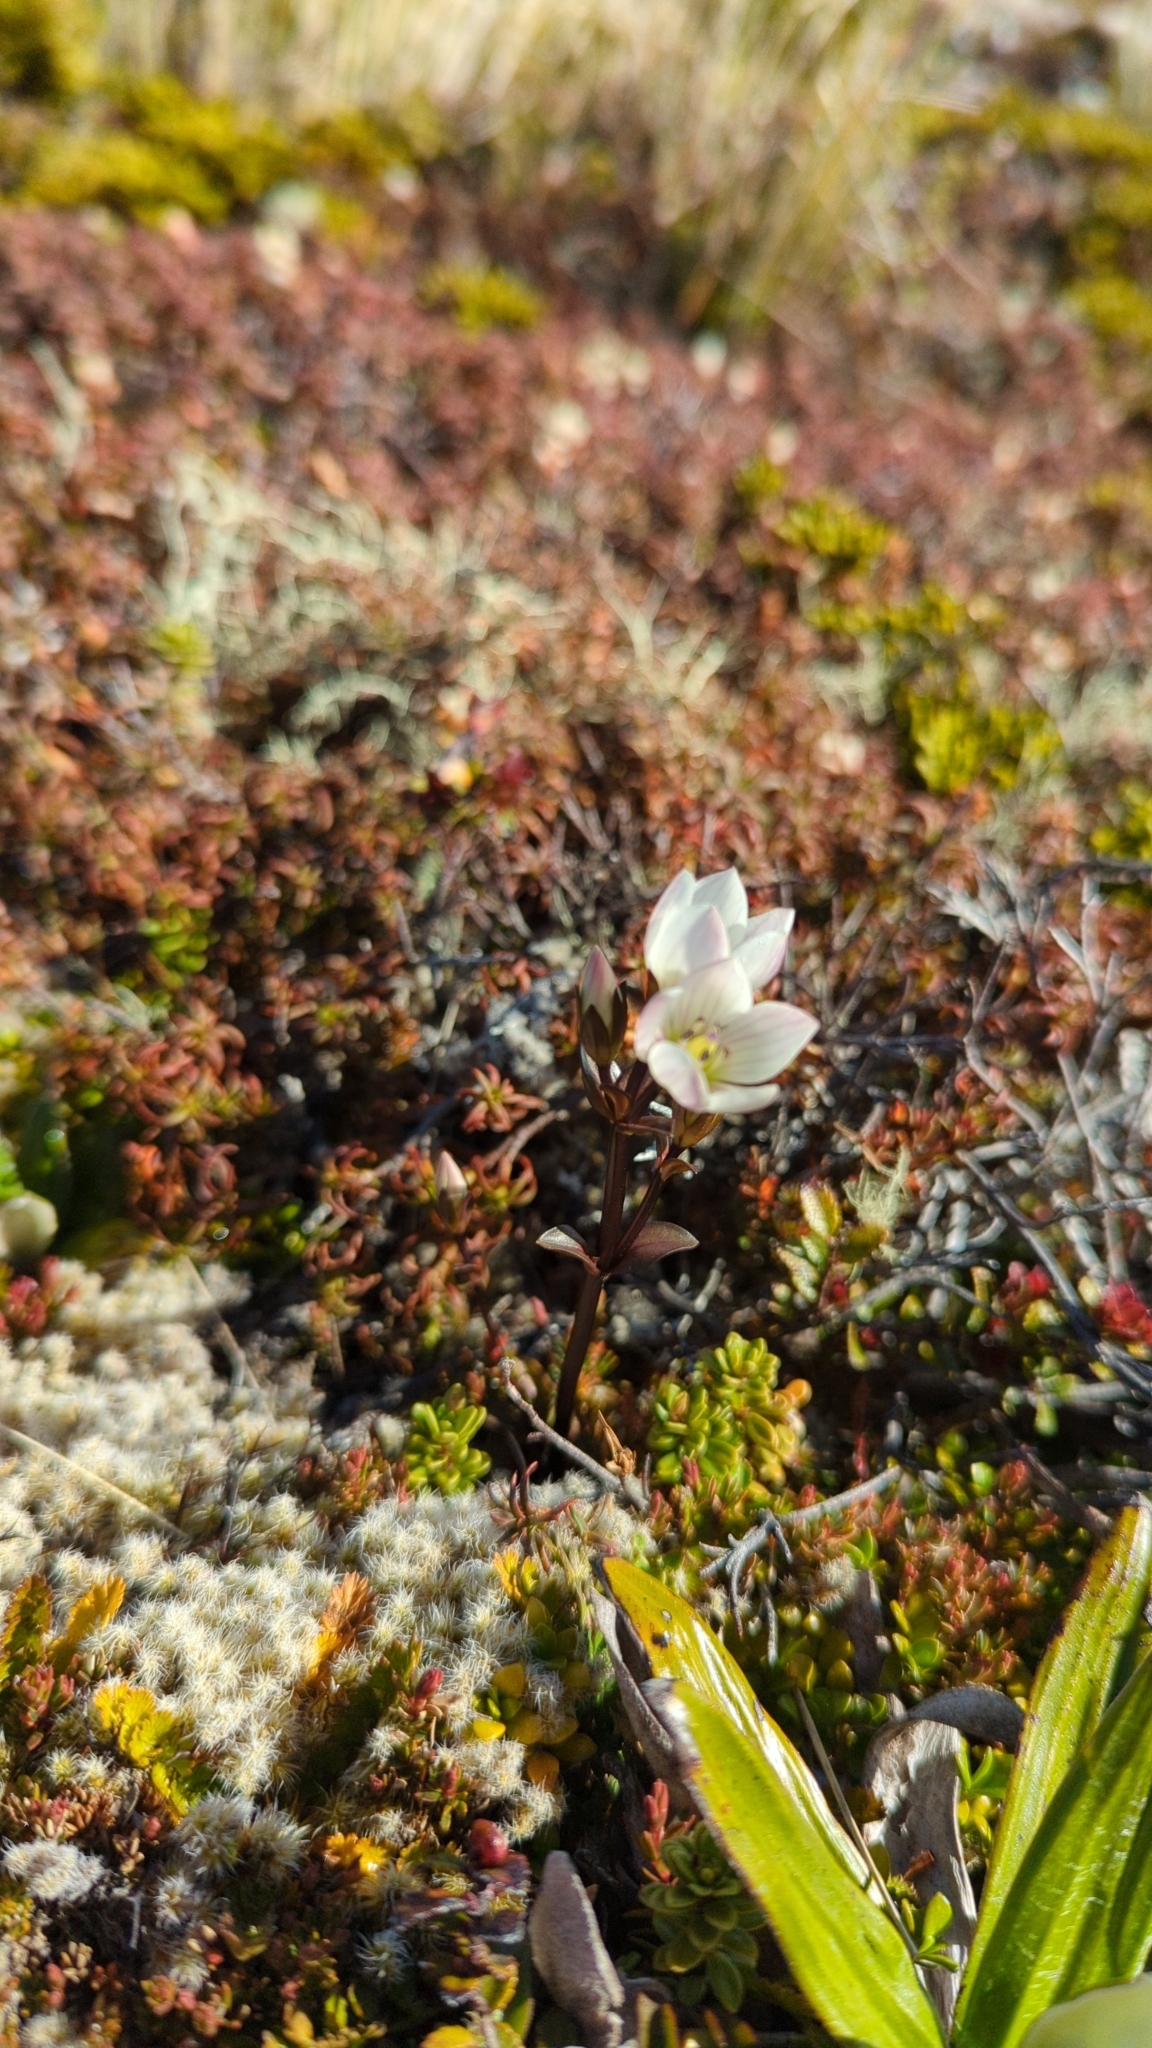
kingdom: Plantae
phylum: Tracheophyta
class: Magnoliopsida
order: Gentianales
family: Gentianaceae
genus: Gentianella
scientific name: Gentianella bellidifolia
